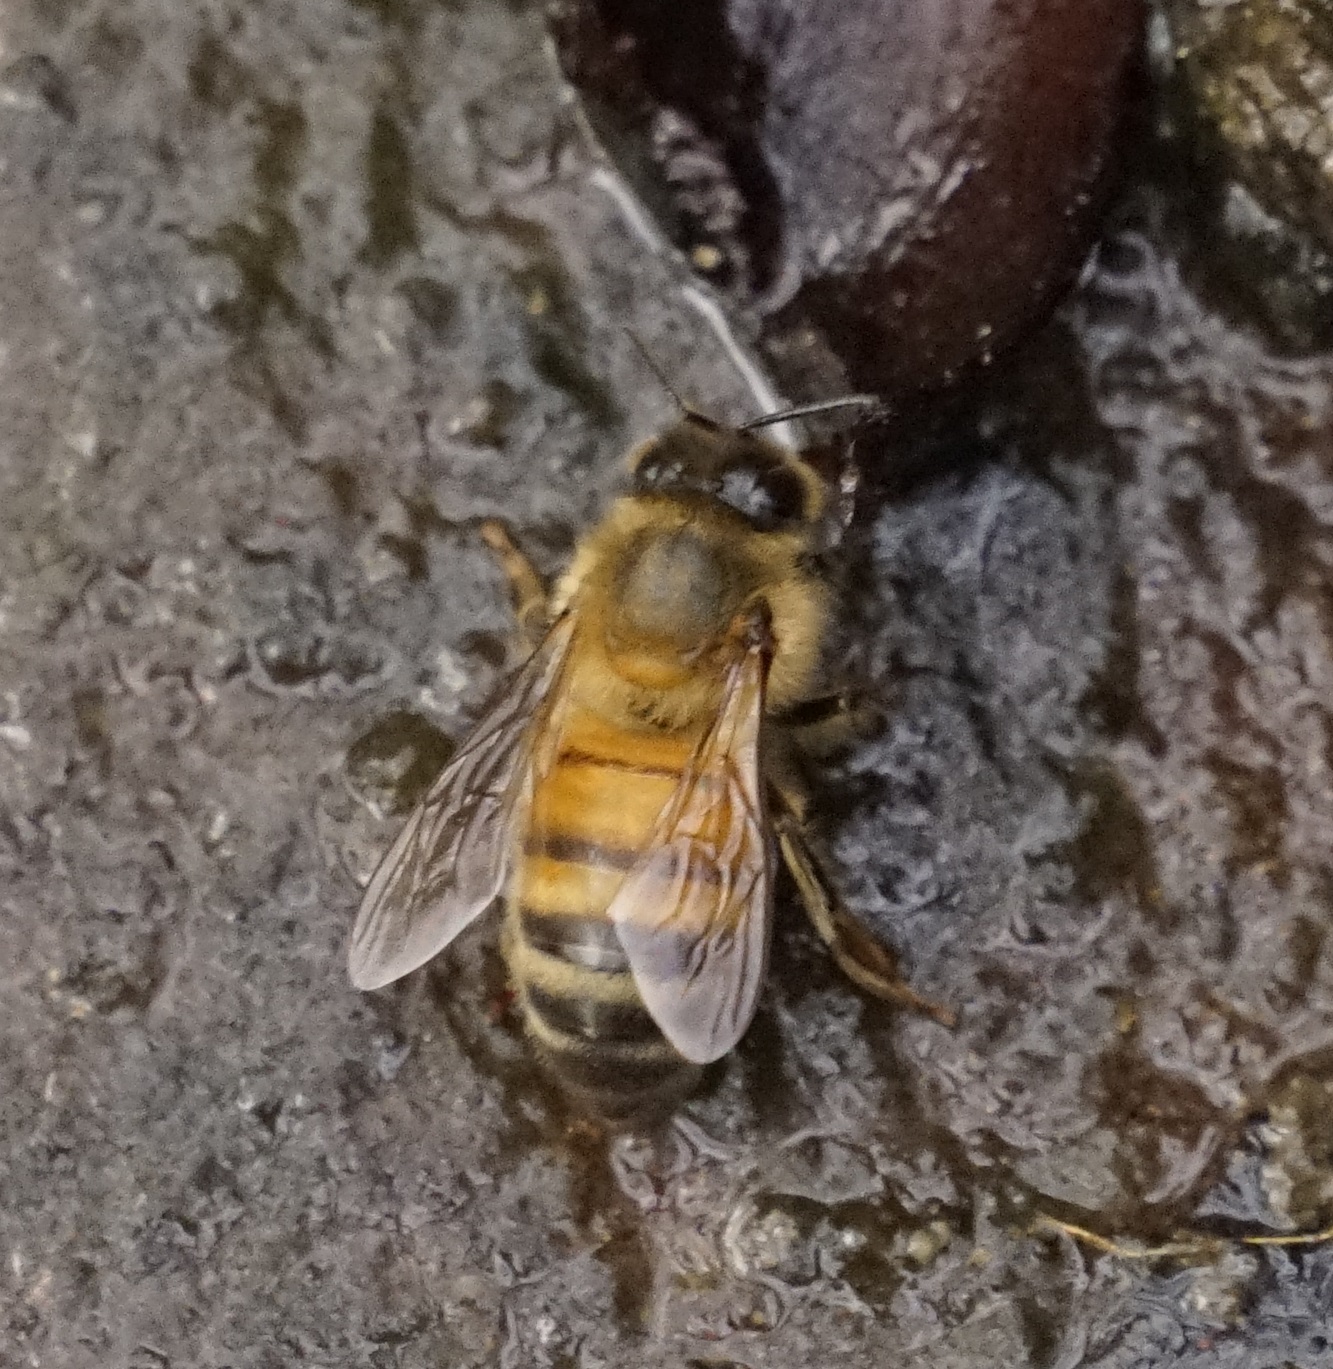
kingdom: Animalia
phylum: Arthropoda
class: Insecta
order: Hymenoptera
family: Apidae
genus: Apis
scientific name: Apis mellifera
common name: Honey bee
